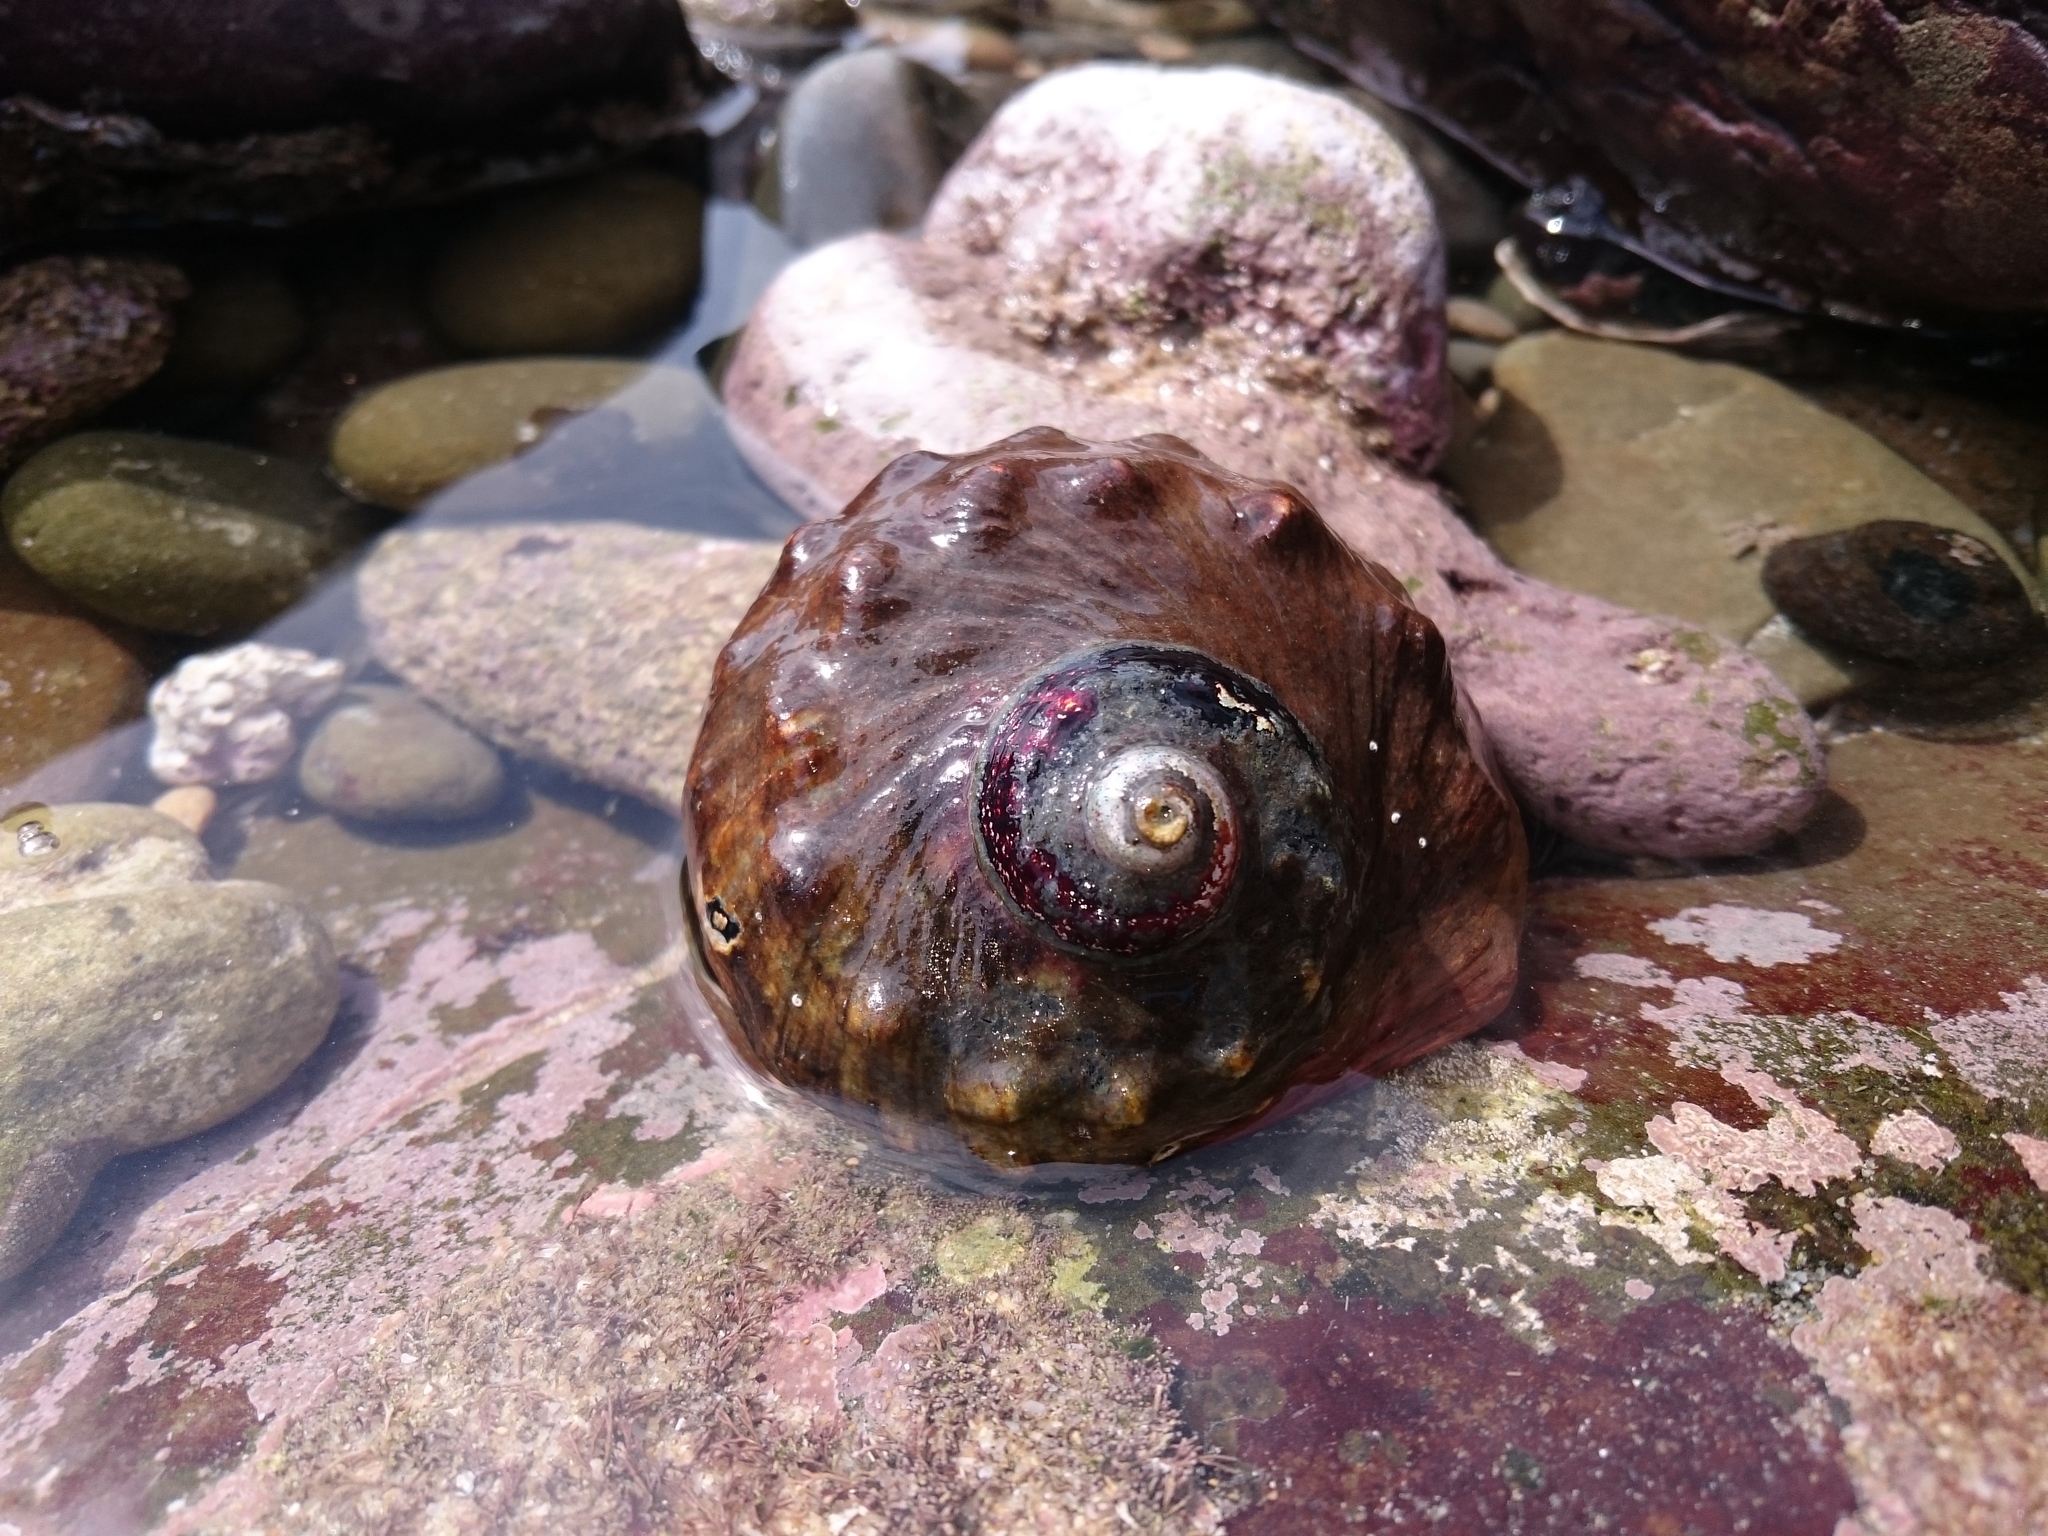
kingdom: Animalia
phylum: Mollusca
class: Gastropoda
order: Trochida
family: Turbinidae
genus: Turbo
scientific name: Turbo sarmaticus
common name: South african turban
